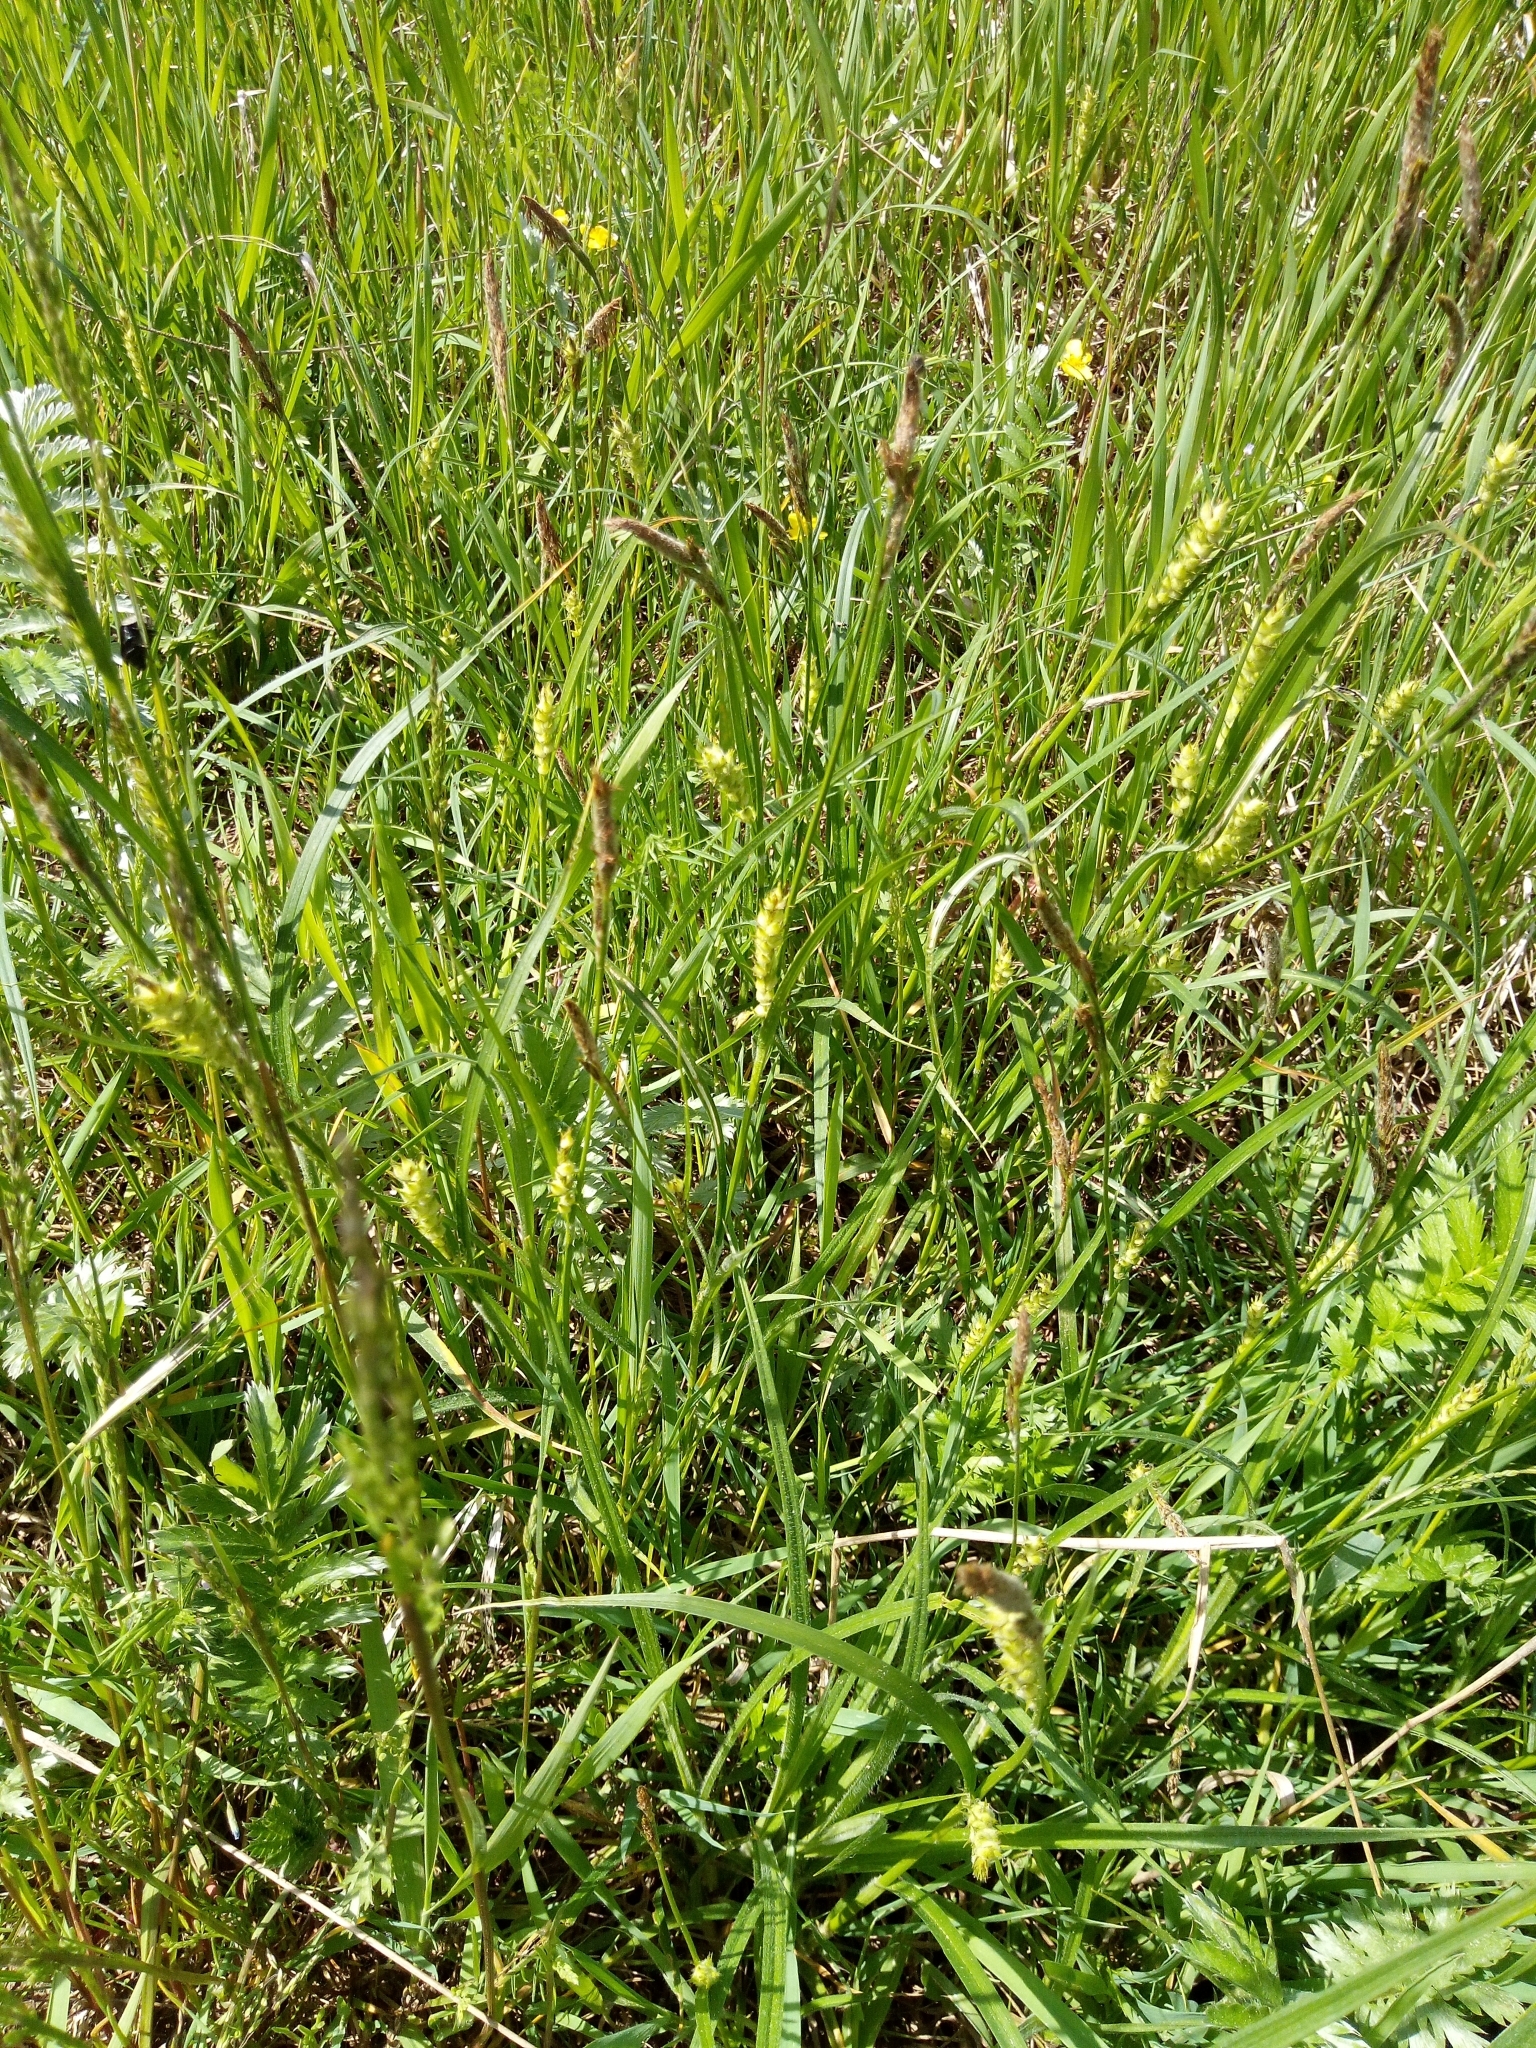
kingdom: Plantae
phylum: Tracheophyta
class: Liliopsida
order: Poales
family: Cyperaceae
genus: Carex
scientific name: Carex hirta
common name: Hairy sedge
